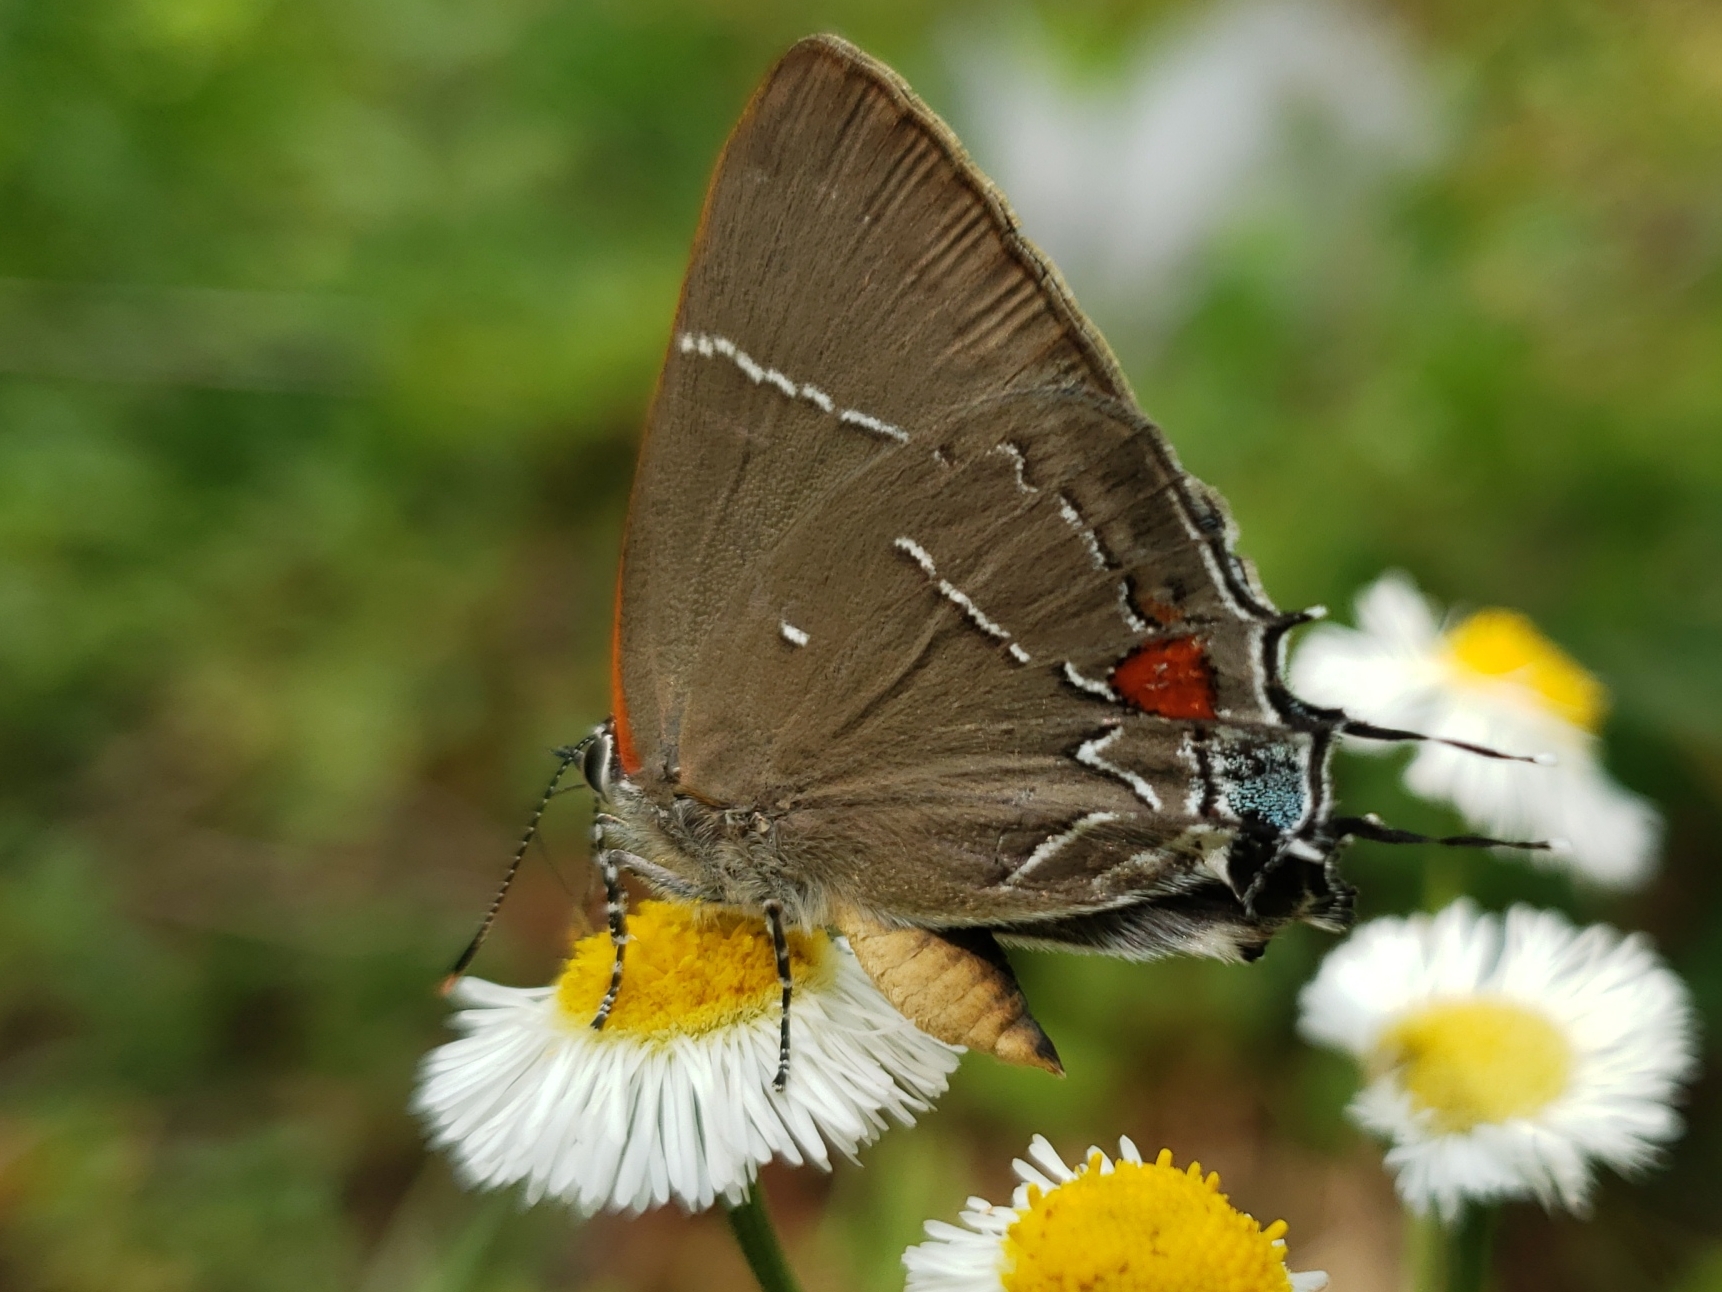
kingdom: Animalia
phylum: Arthropoda
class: Insecta
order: Lepidoptera
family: Lycaenidae
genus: Parrhasius
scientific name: Parrhasius m-album
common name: White m hairstreak
